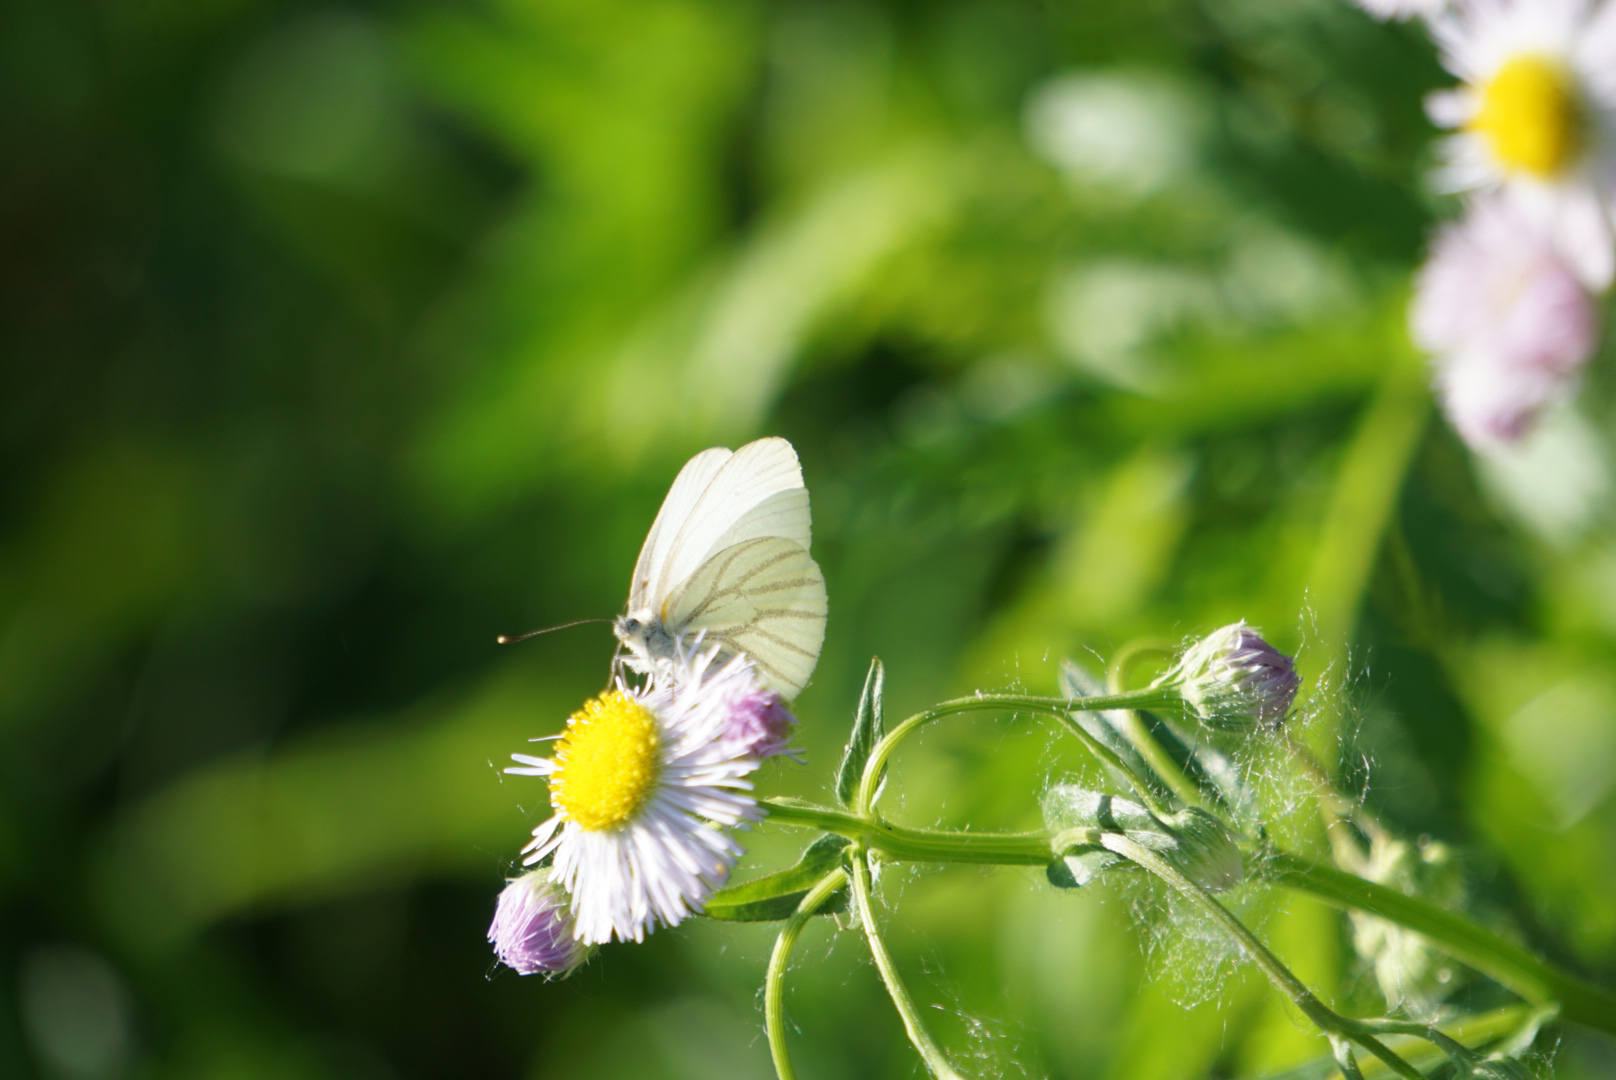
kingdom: Animalia
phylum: Arthropoda
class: Insecta
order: Lepidoptera
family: Pieridae
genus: Pieris
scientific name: Pieris oleracea
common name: Mustard white
